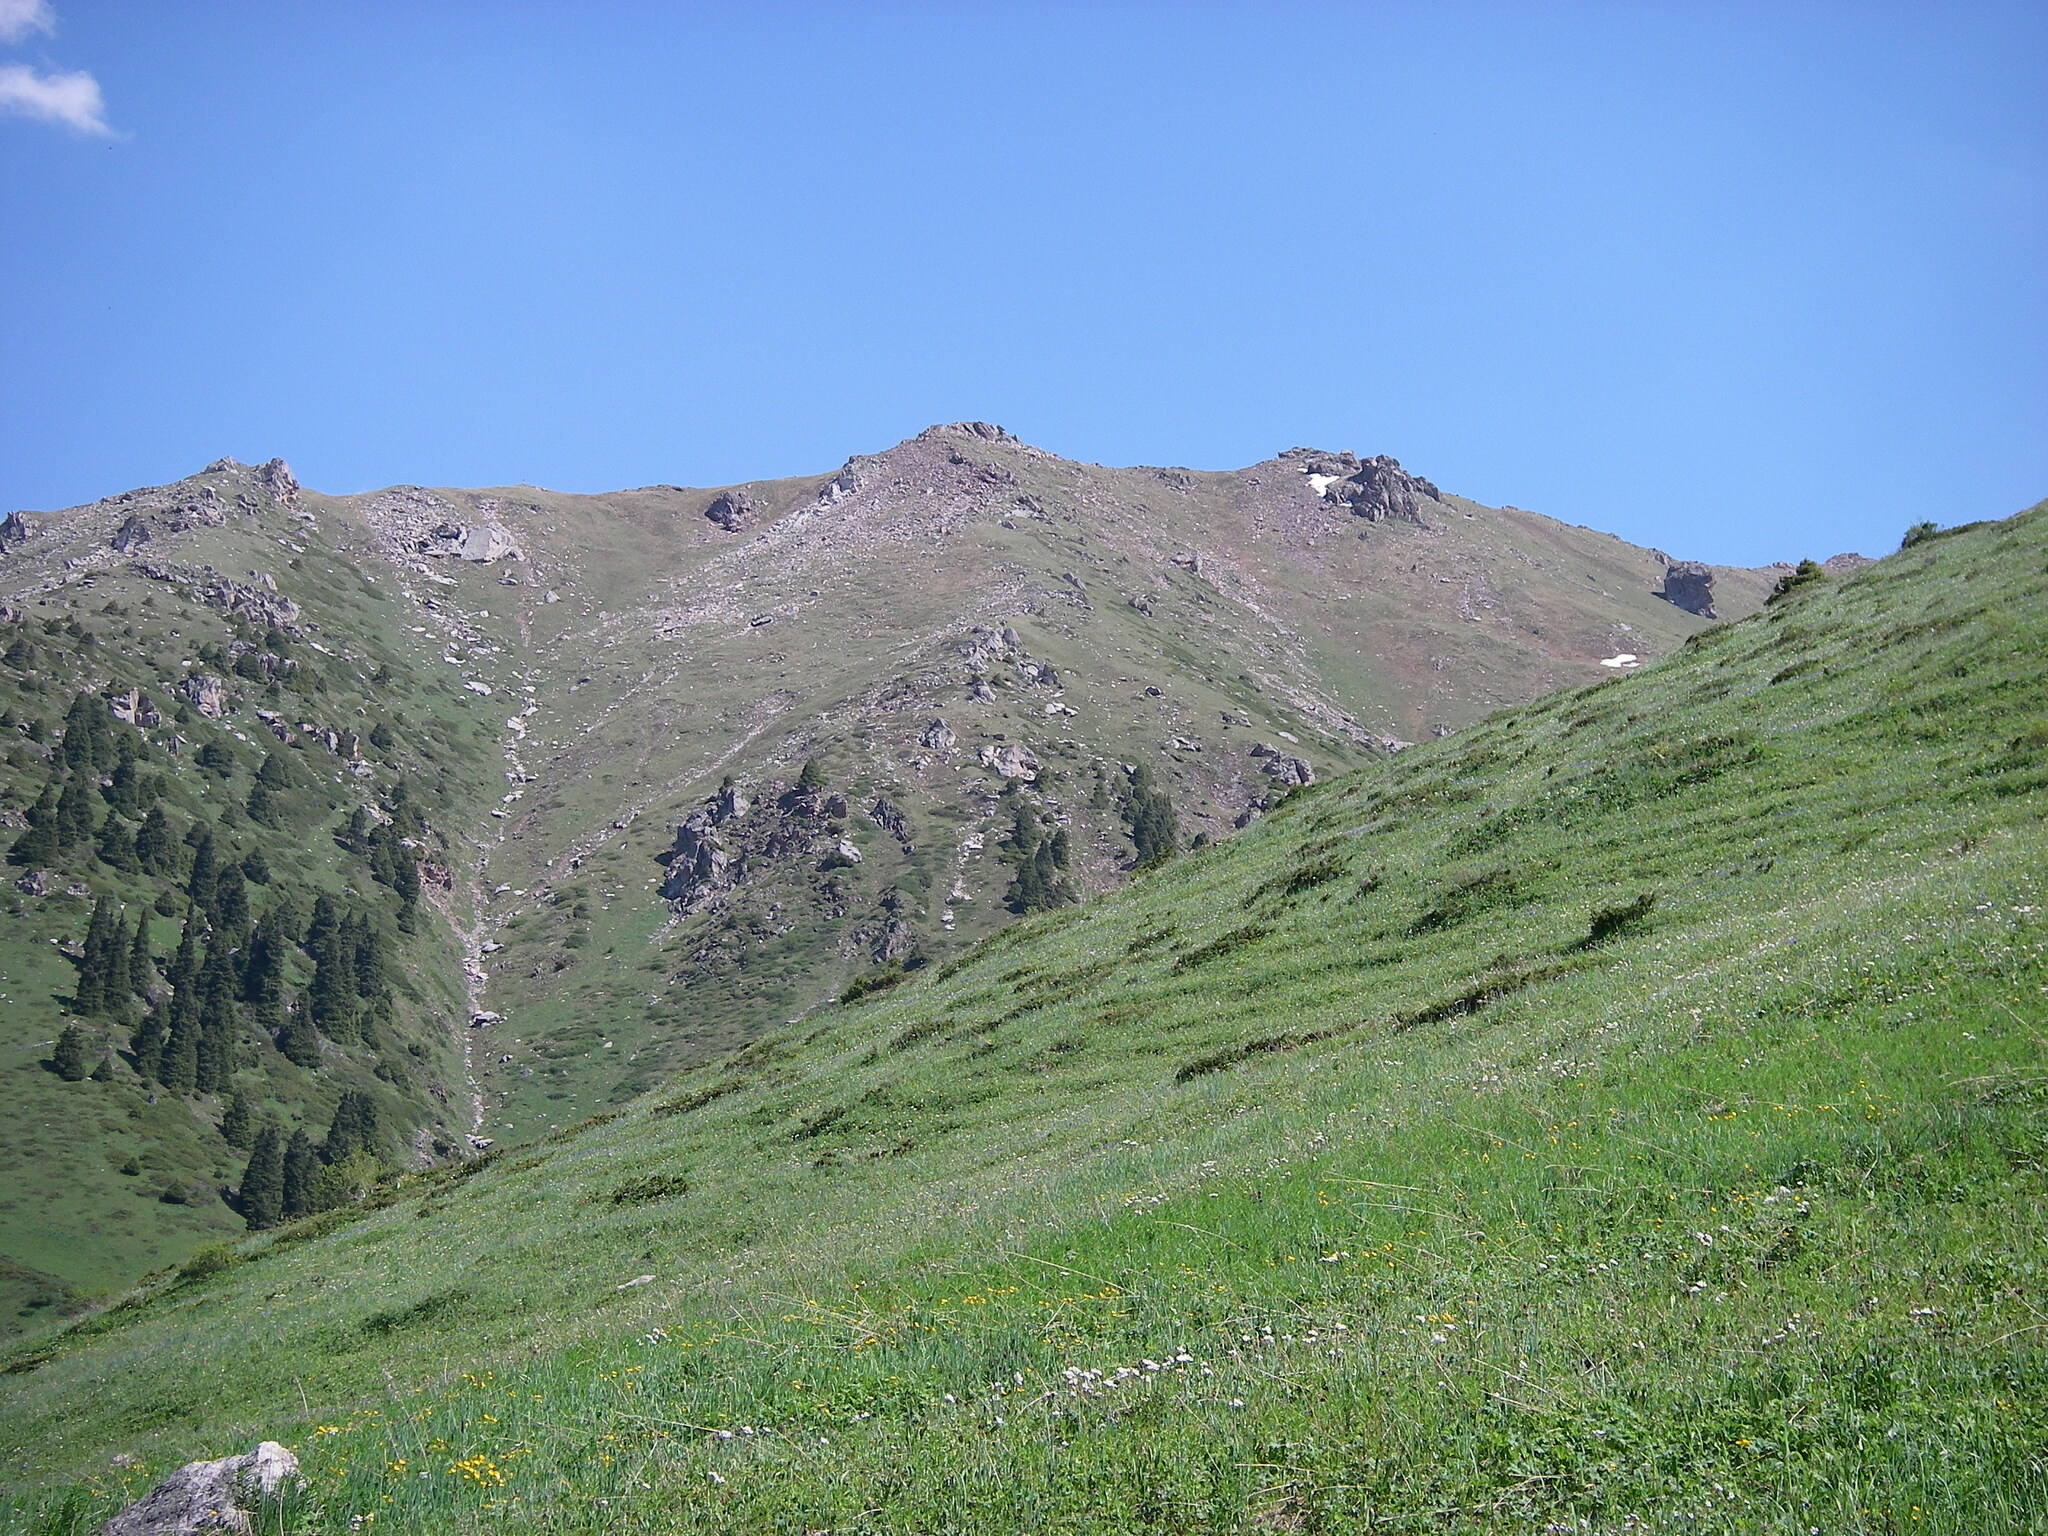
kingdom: Plantae
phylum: Tracheophyta
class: Pinopsida
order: Pinales
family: Cupressaceae
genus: Juniperus
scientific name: Juniperus pseudosabina
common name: Turkestan juniper
